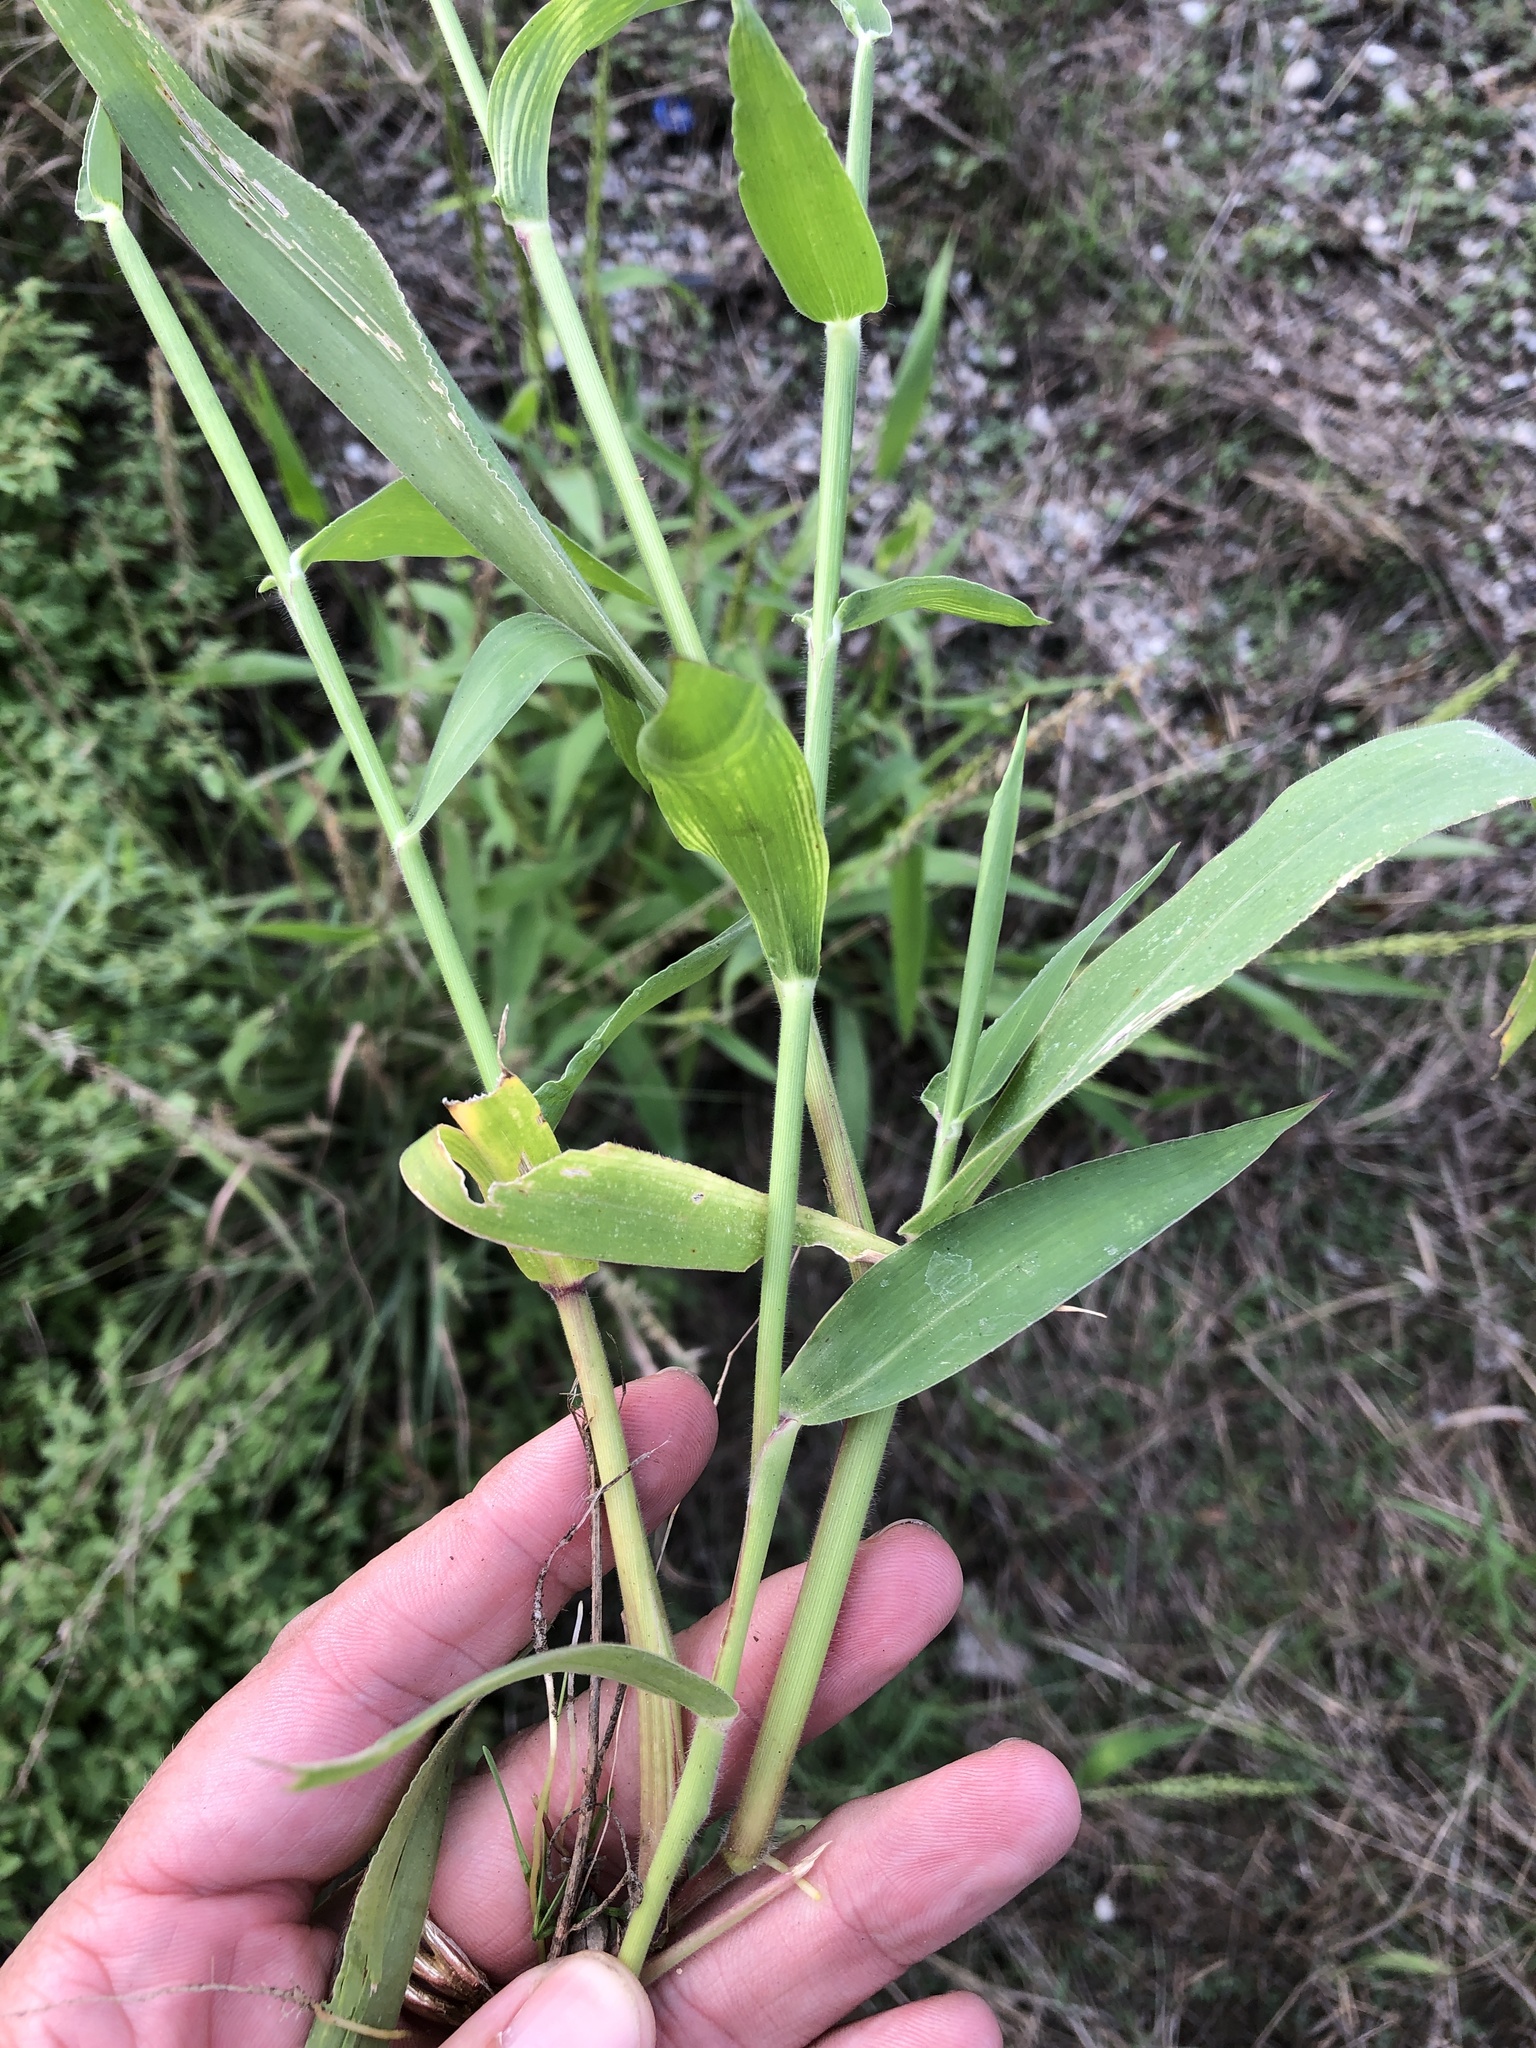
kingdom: Plantae
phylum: Tracheophyta
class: Liliopsida
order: Poales
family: Poaceae
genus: Urochloa
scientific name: Urochloa texana
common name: Texas millet
